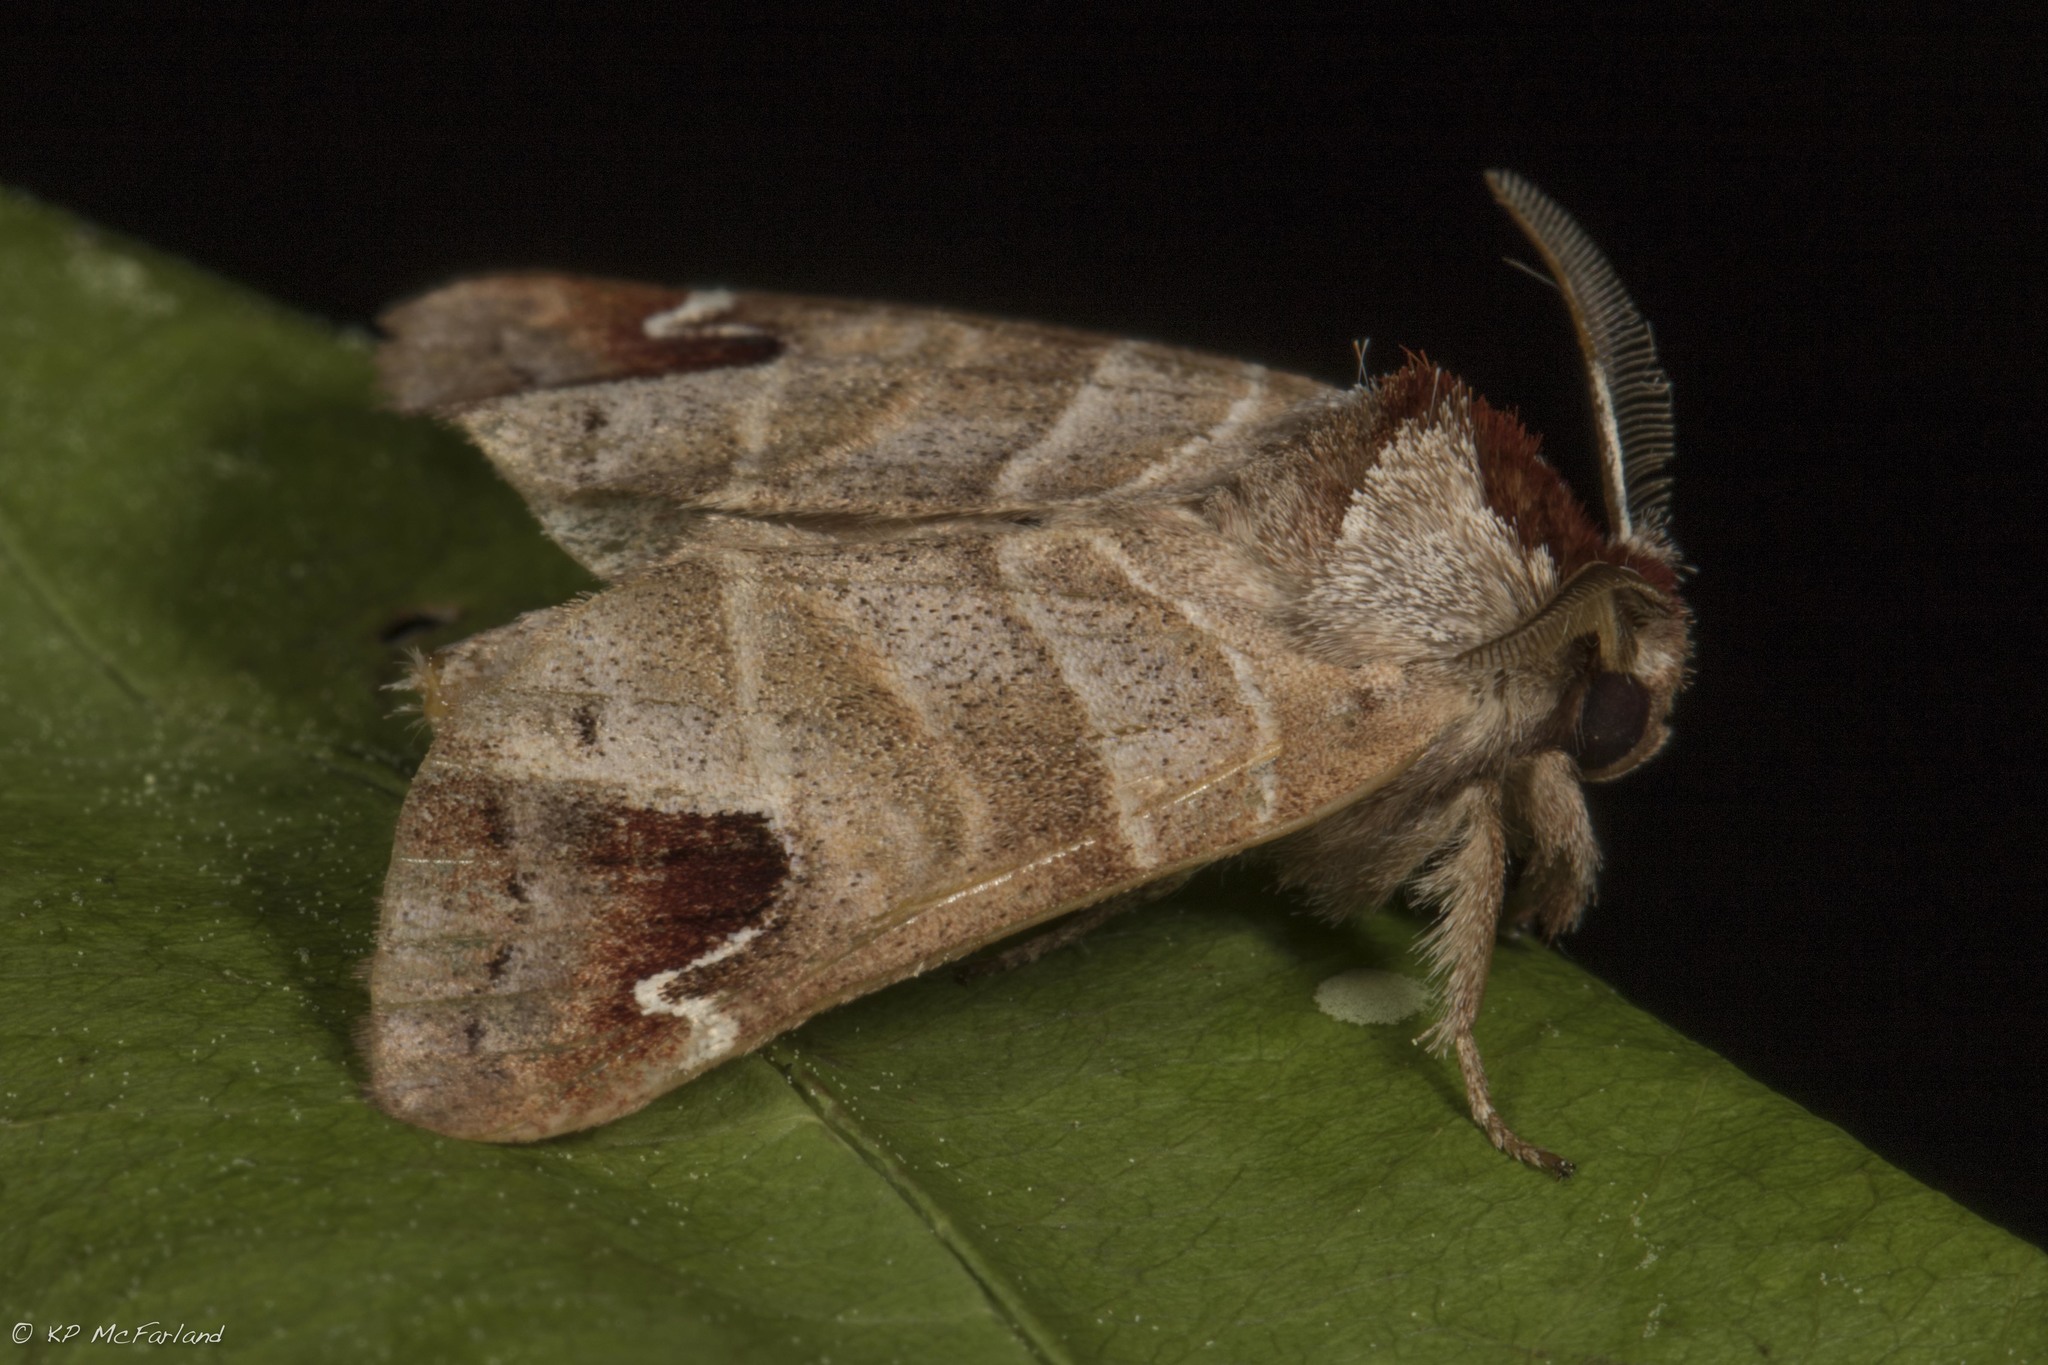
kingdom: Animalia
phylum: Arthropoda
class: Insecta
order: Lepidoptera
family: Notodontidae
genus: Clostera
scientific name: Clostera albosigma
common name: Sigmoid prominent
